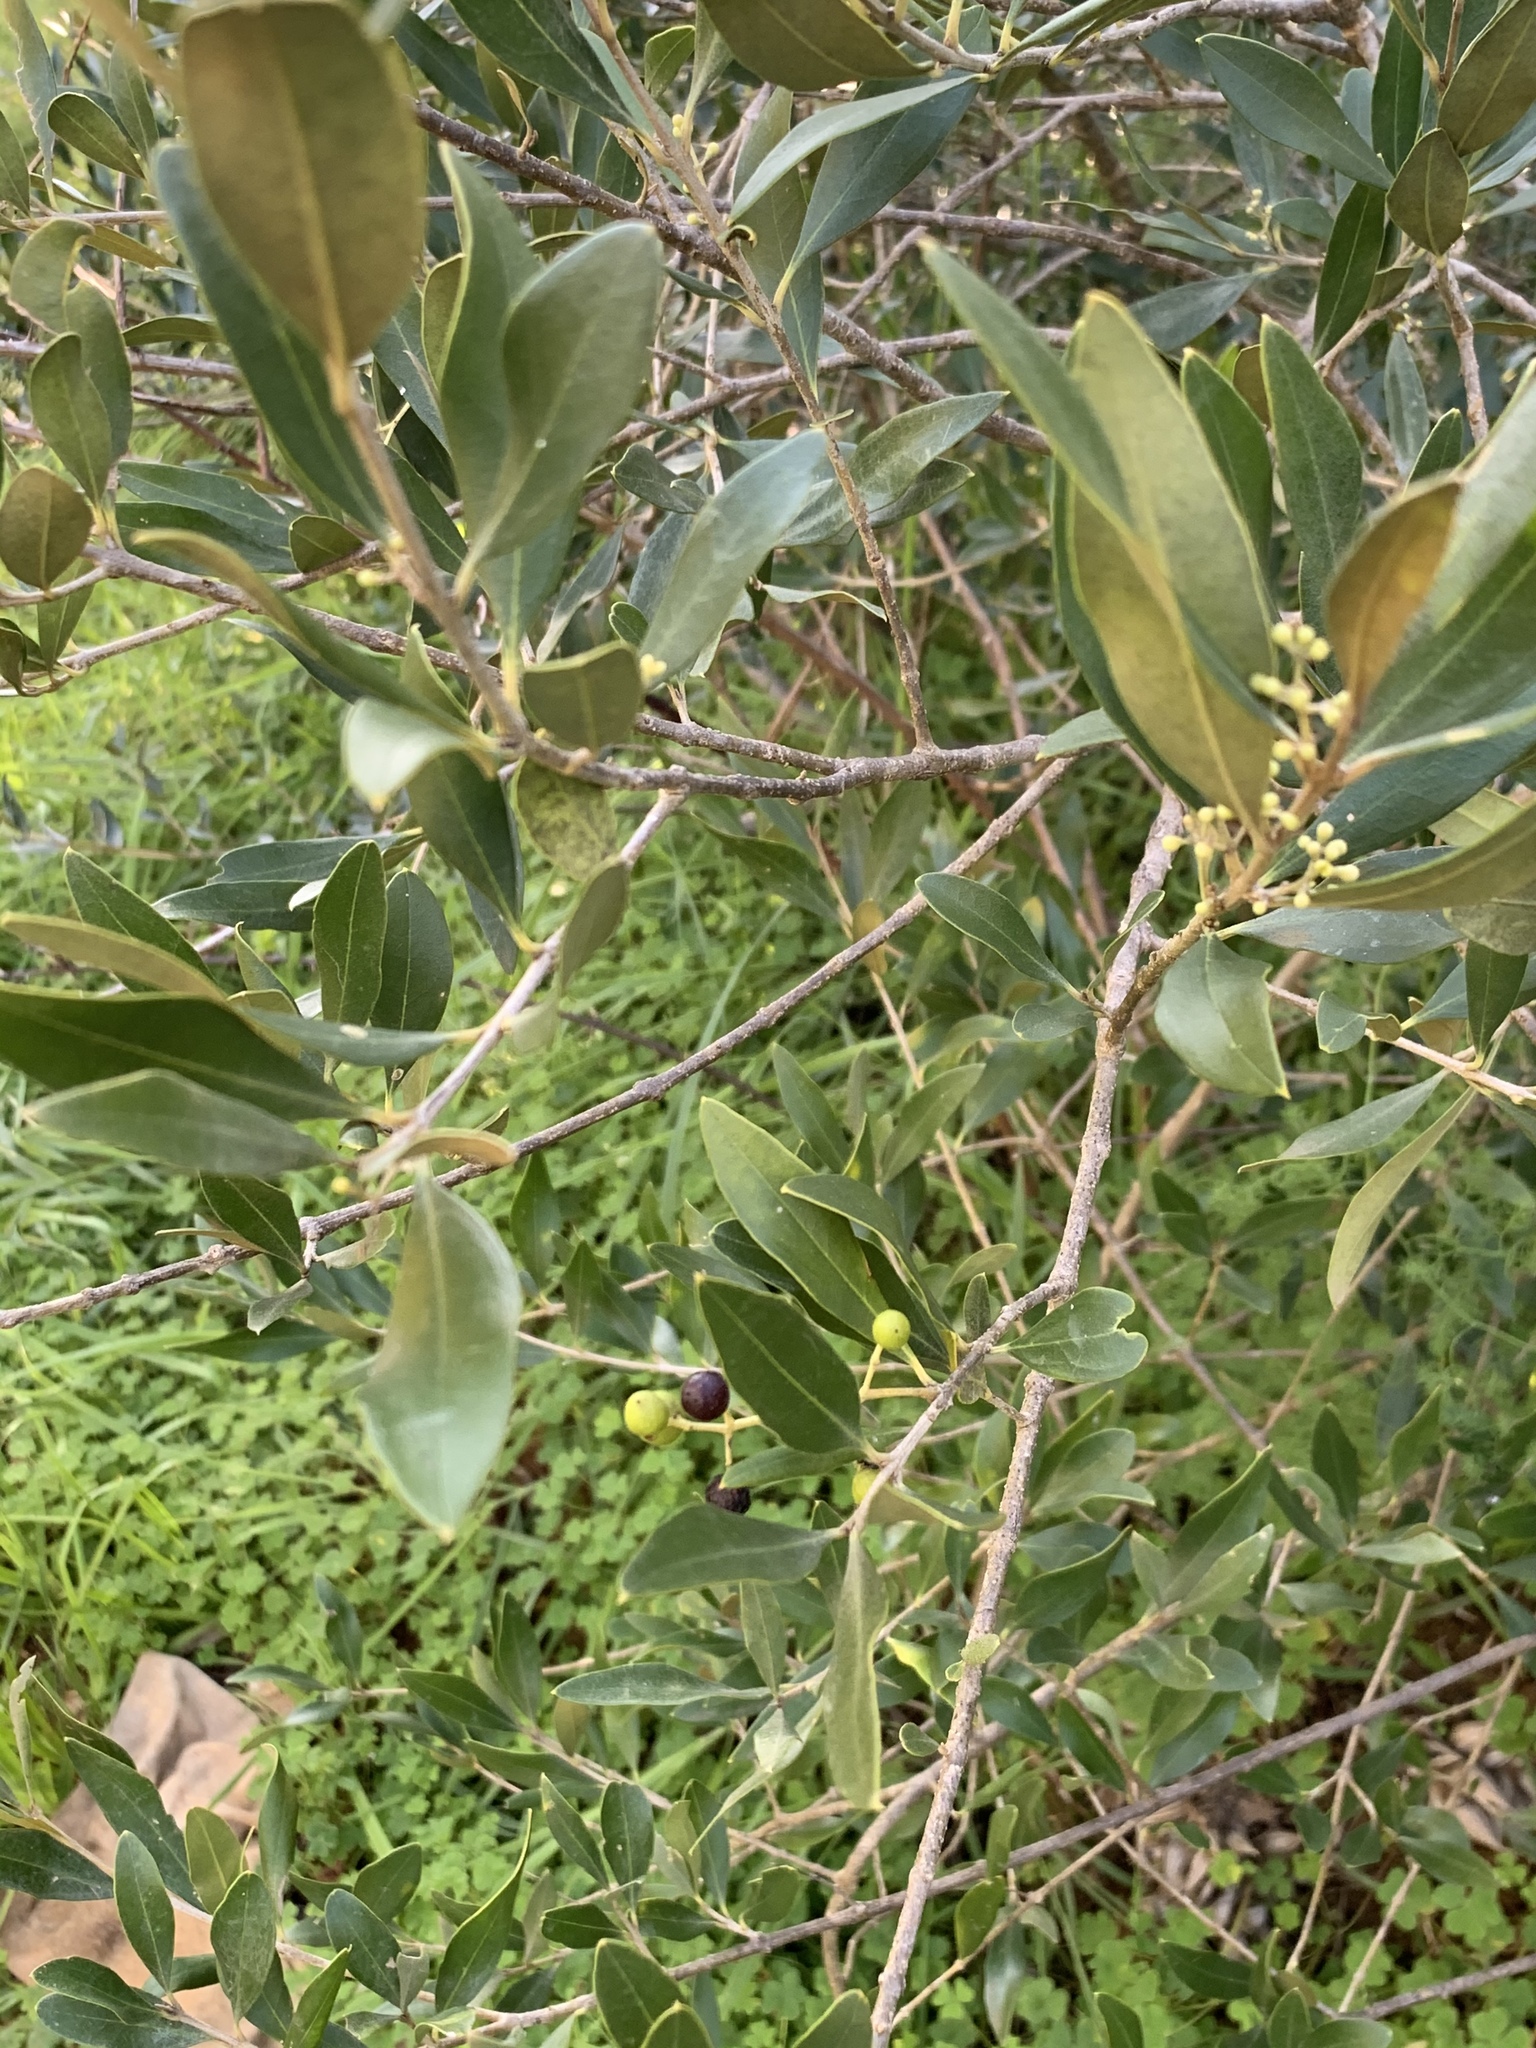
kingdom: Plantae
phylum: Tracheophyta
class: Magnoliopsida
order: Lamiales
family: Oleaceae
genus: Olea
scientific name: Olea europaea
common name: Olive
